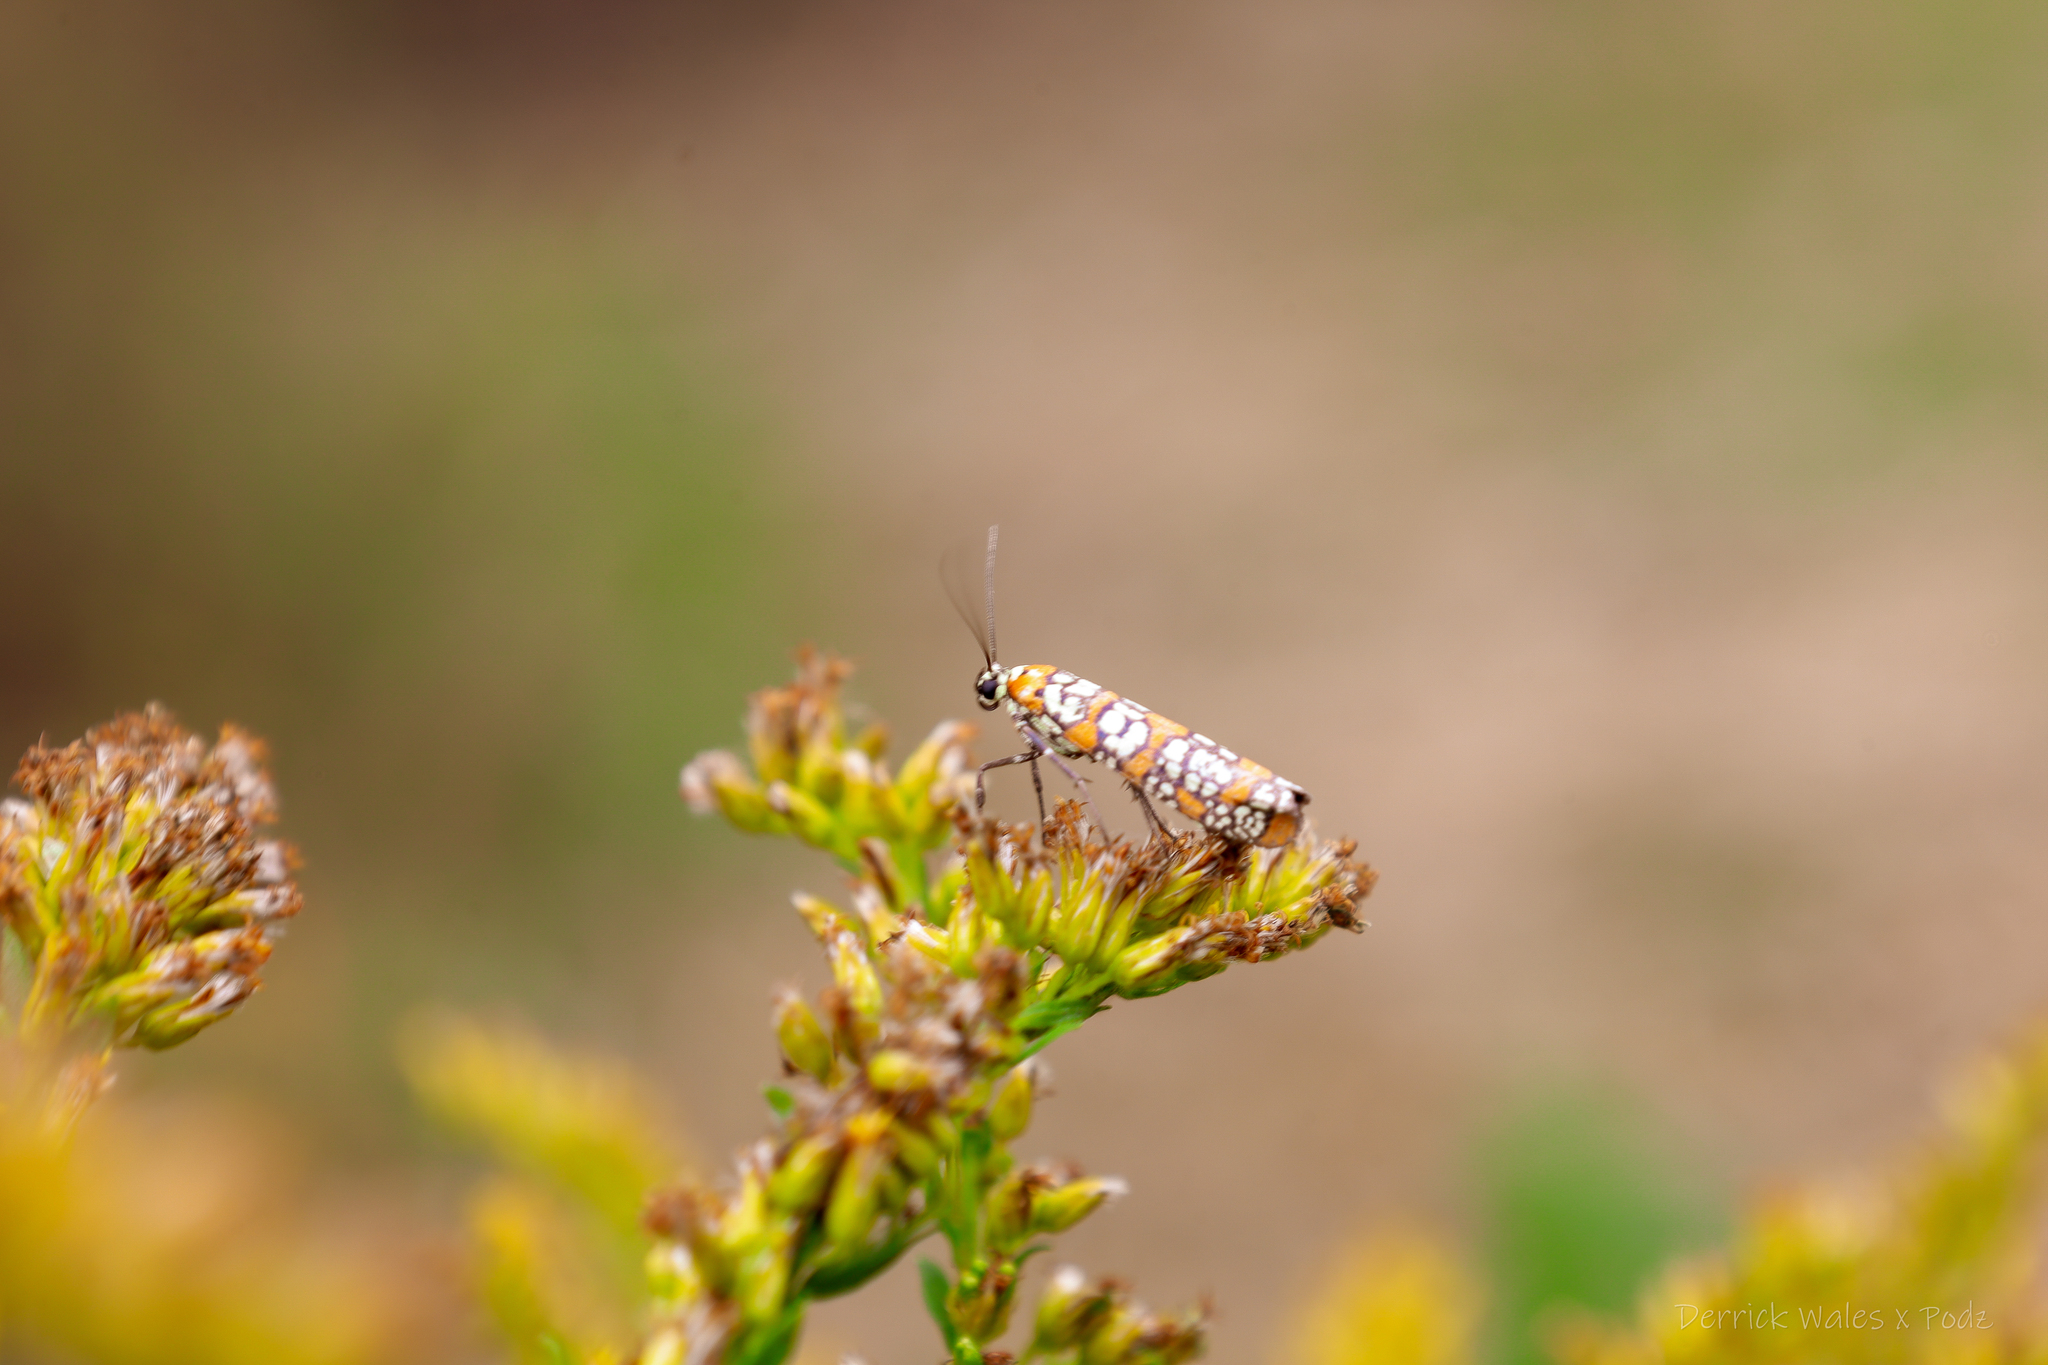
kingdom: Animalia
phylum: Arthropoda
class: Insecta
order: Lepidoptera
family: Attevidae
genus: Atteva
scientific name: Atteva punctella
